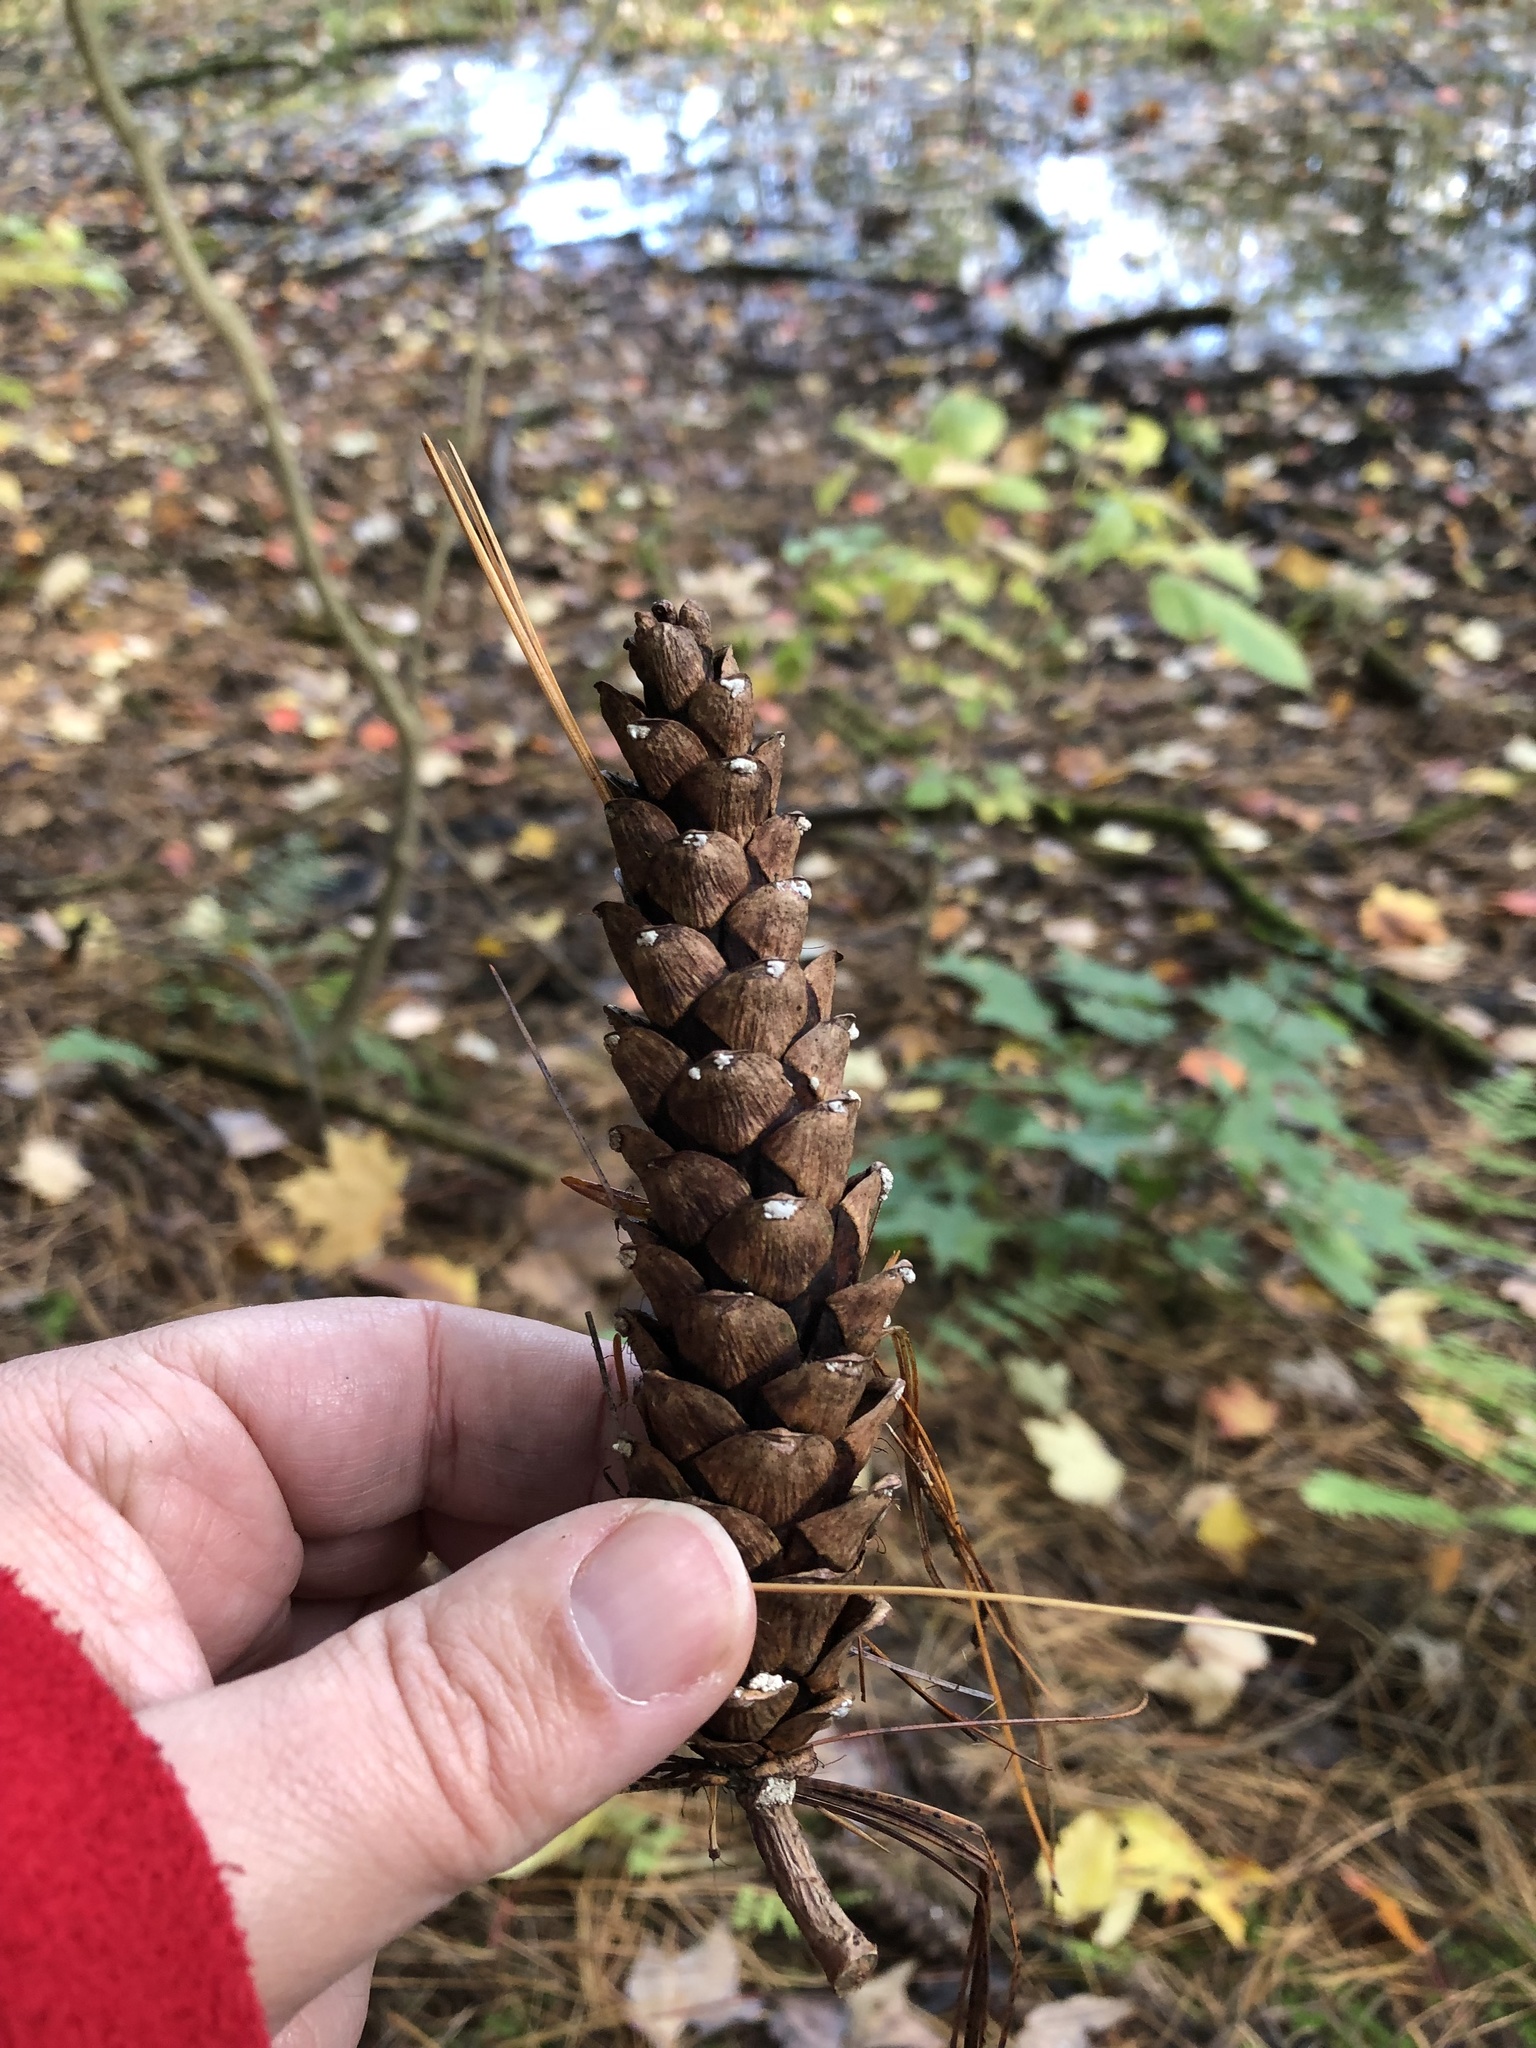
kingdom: Plantae
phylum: Tracheophyta
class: Pinopsida
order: Pinales
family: Pinaceae
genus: Pinus
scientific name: Pinus strobus
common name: Weymouth pine
